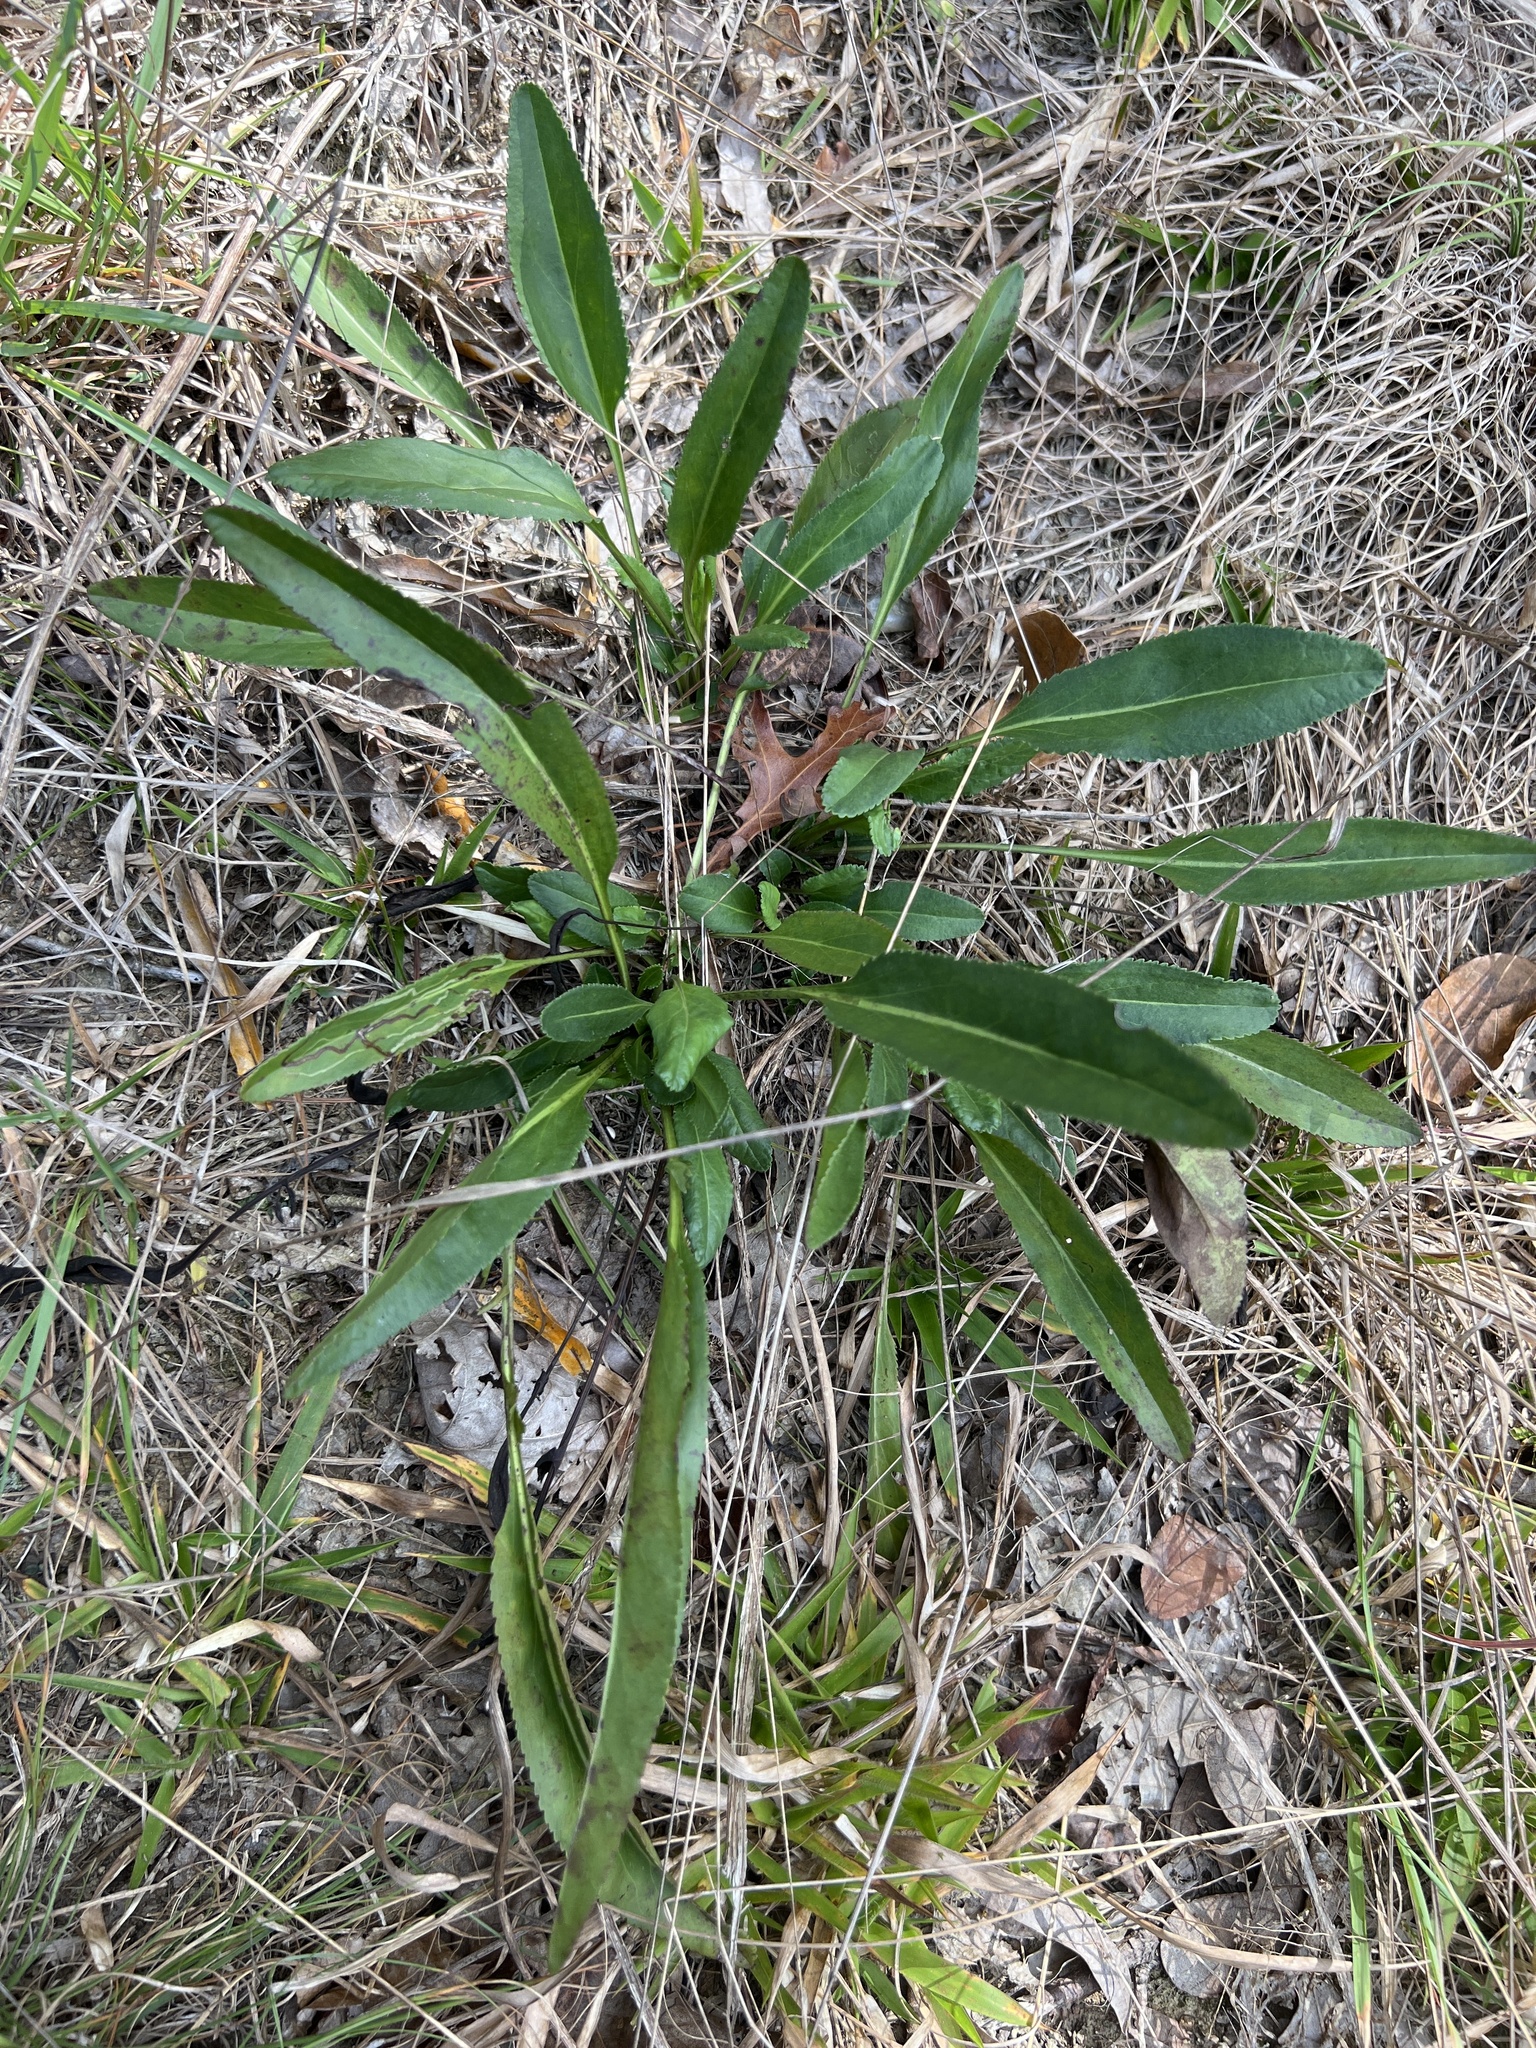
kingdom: Plantae
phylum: Tracheophyta
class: Magnoliopsida
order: Asterales
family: Asteraceae
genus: Packera
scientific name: Packera anonyma
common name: Small ragwort
